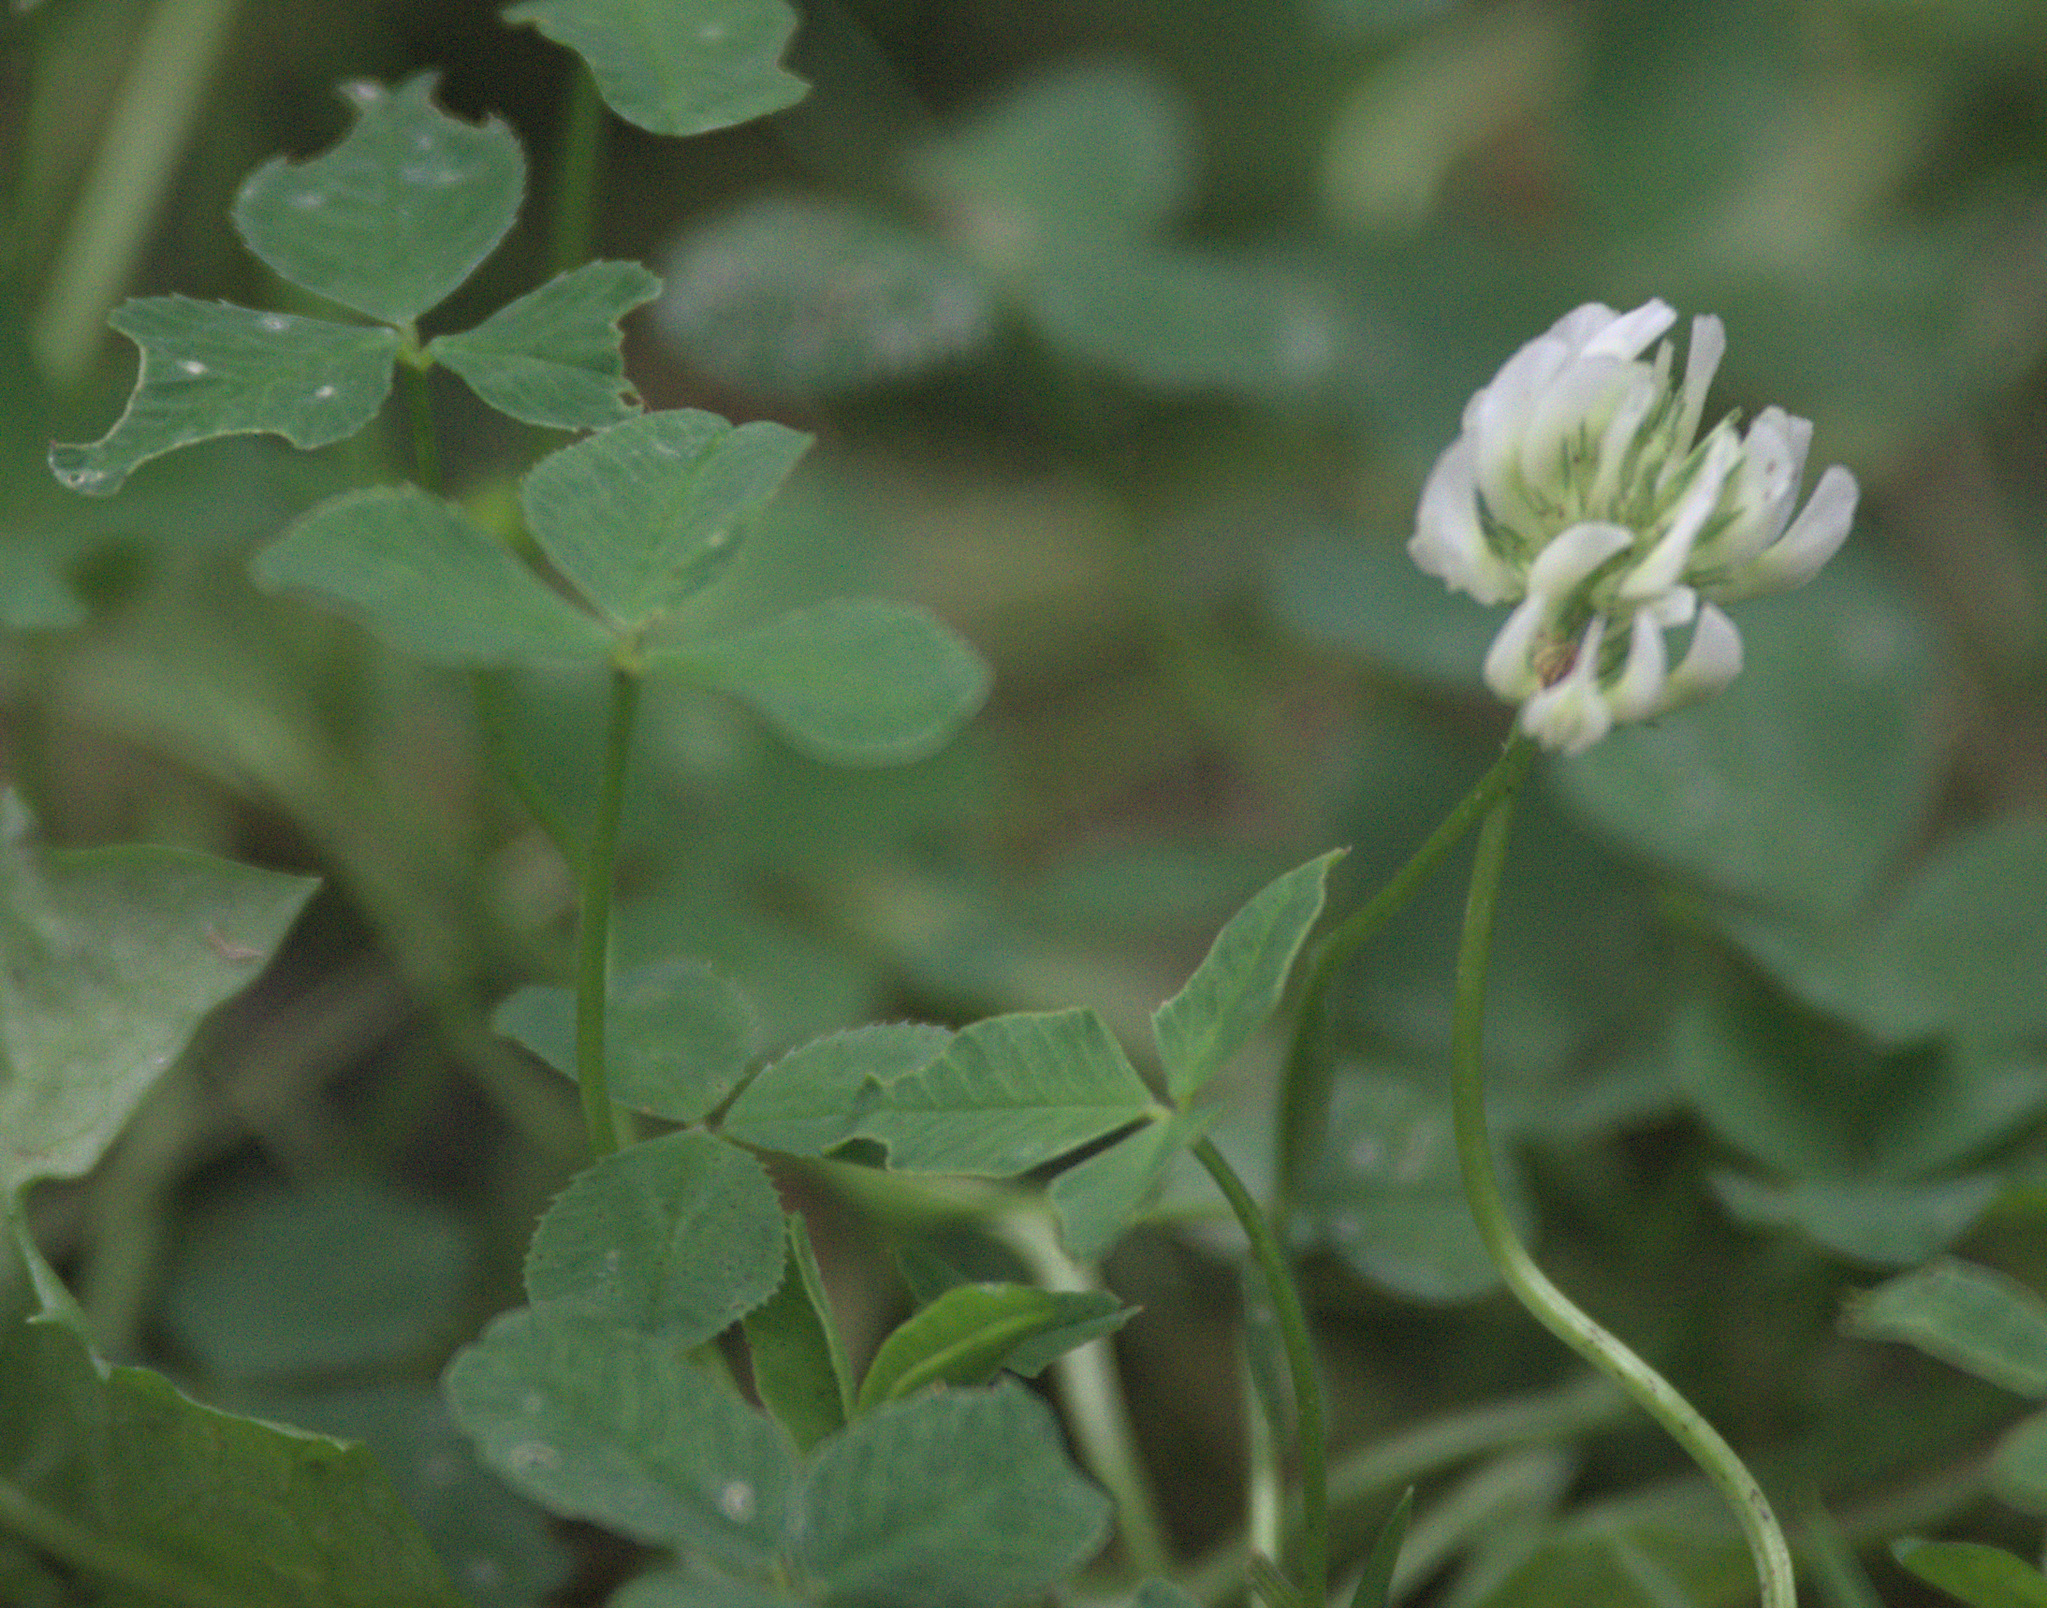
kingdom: Plantae
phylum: Tracheophyta
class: Magnoliopsida
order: Fabales
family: Fabaceae
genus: Trifolium
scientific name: Trifolium repens
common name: White clover
